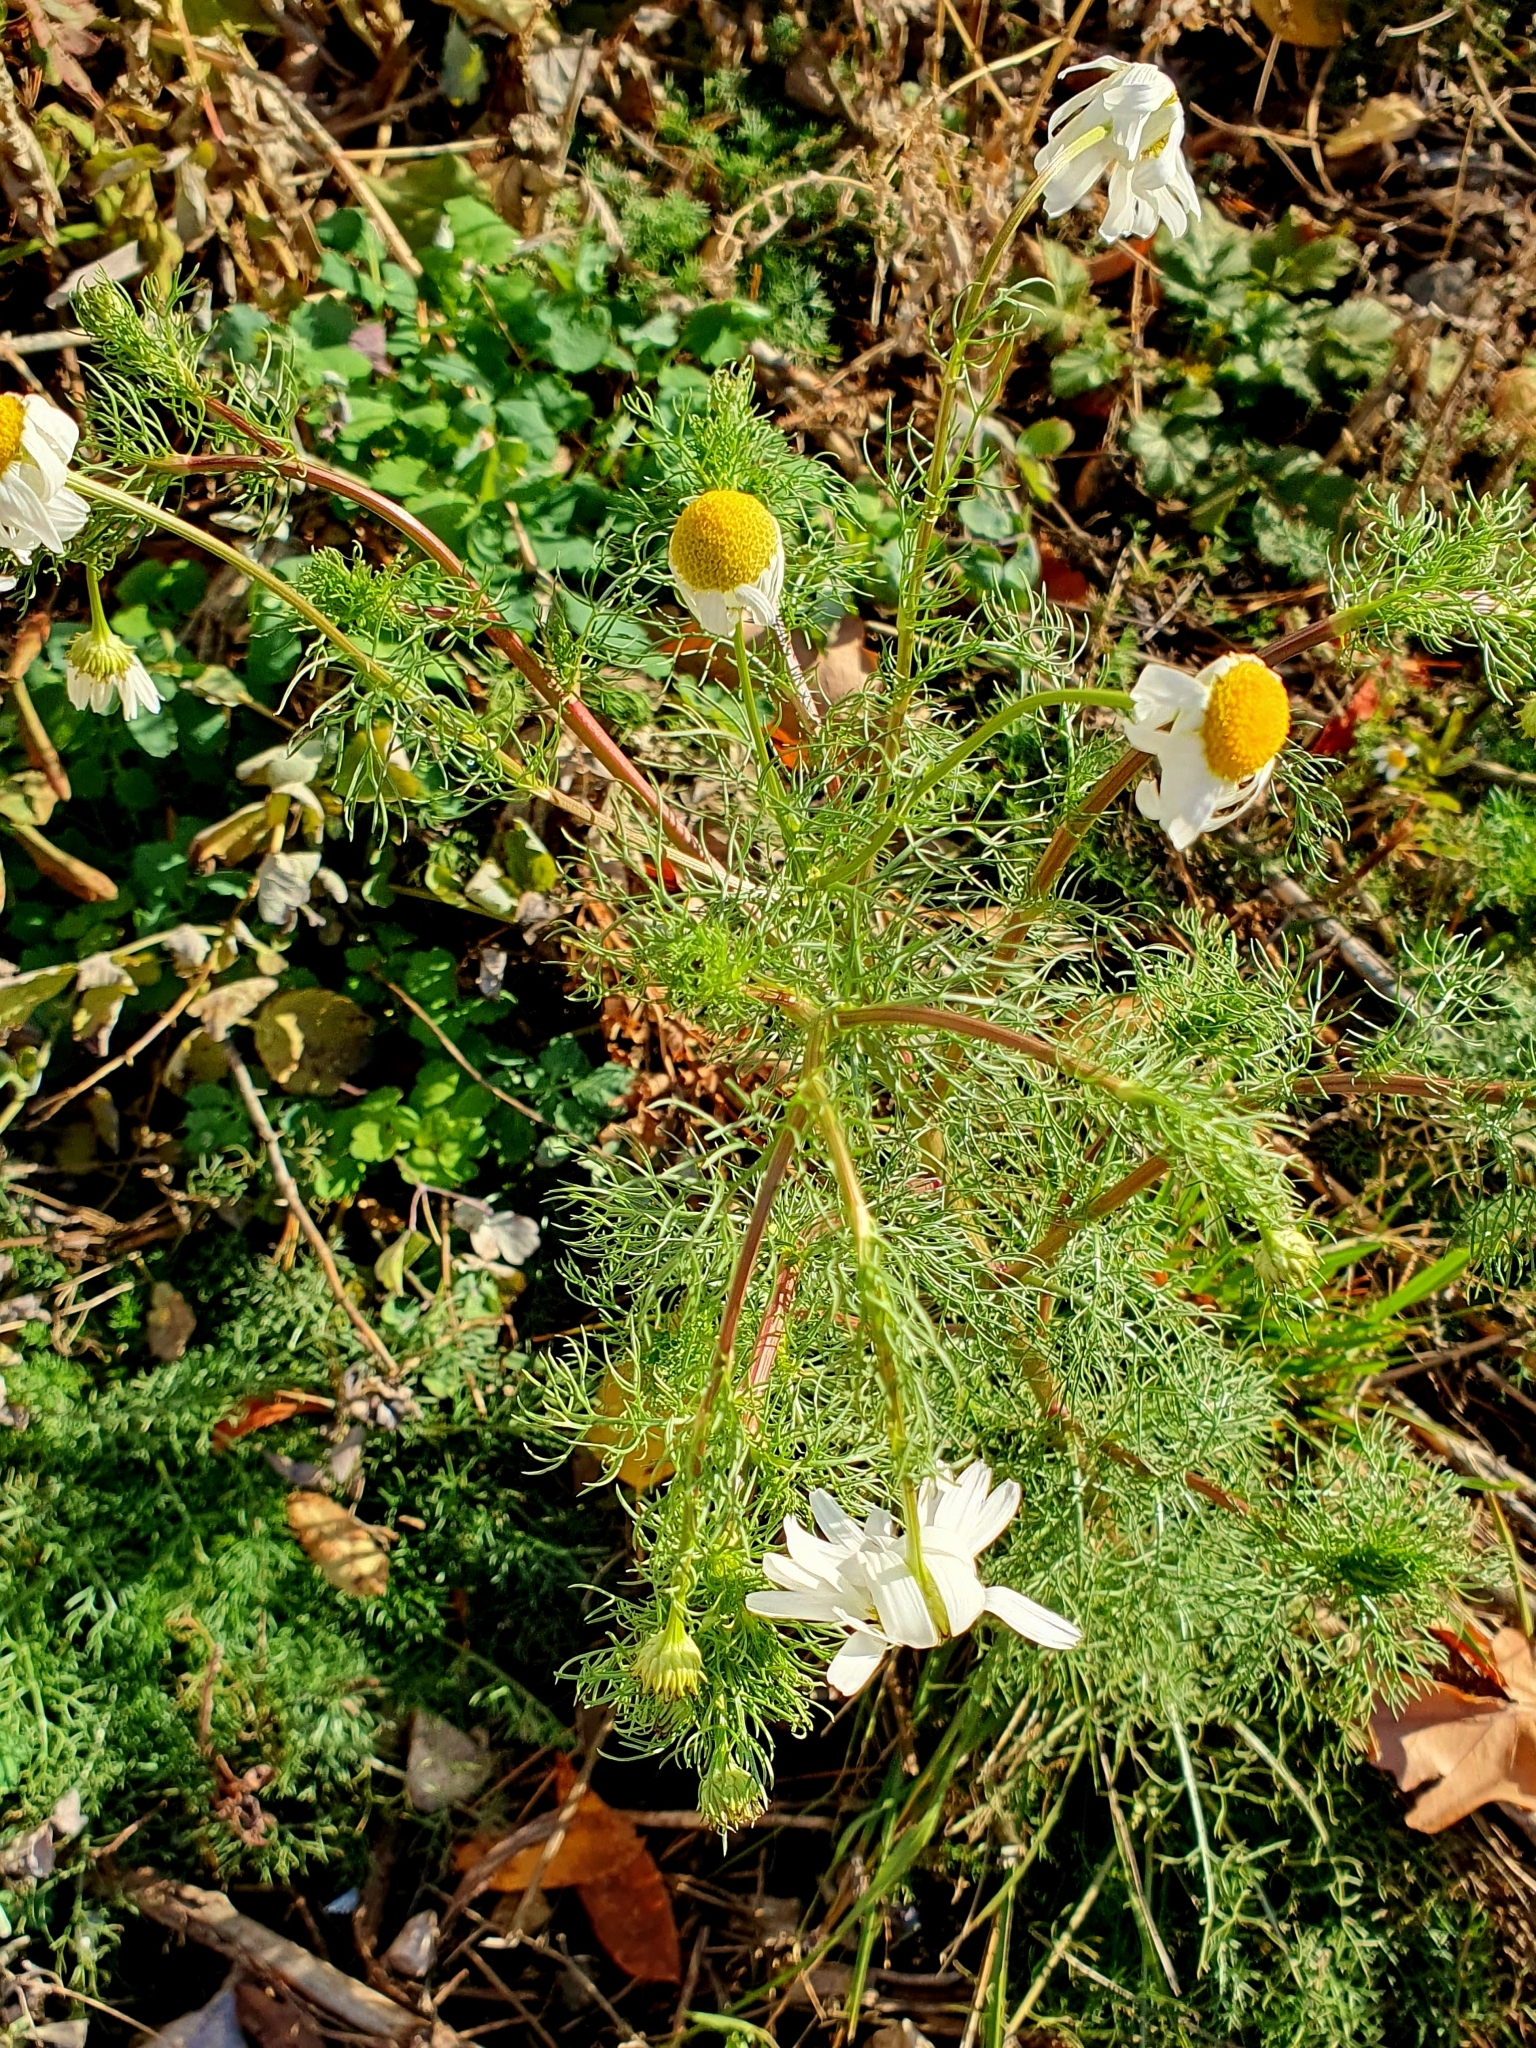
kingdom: Plantae
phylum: Tracheophyta
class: Magnoliopsida
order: Asterales
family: Asteraceae
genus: Tripleurospermum
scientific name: Tripleurospermum inodorum
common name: Scentless mayweed
